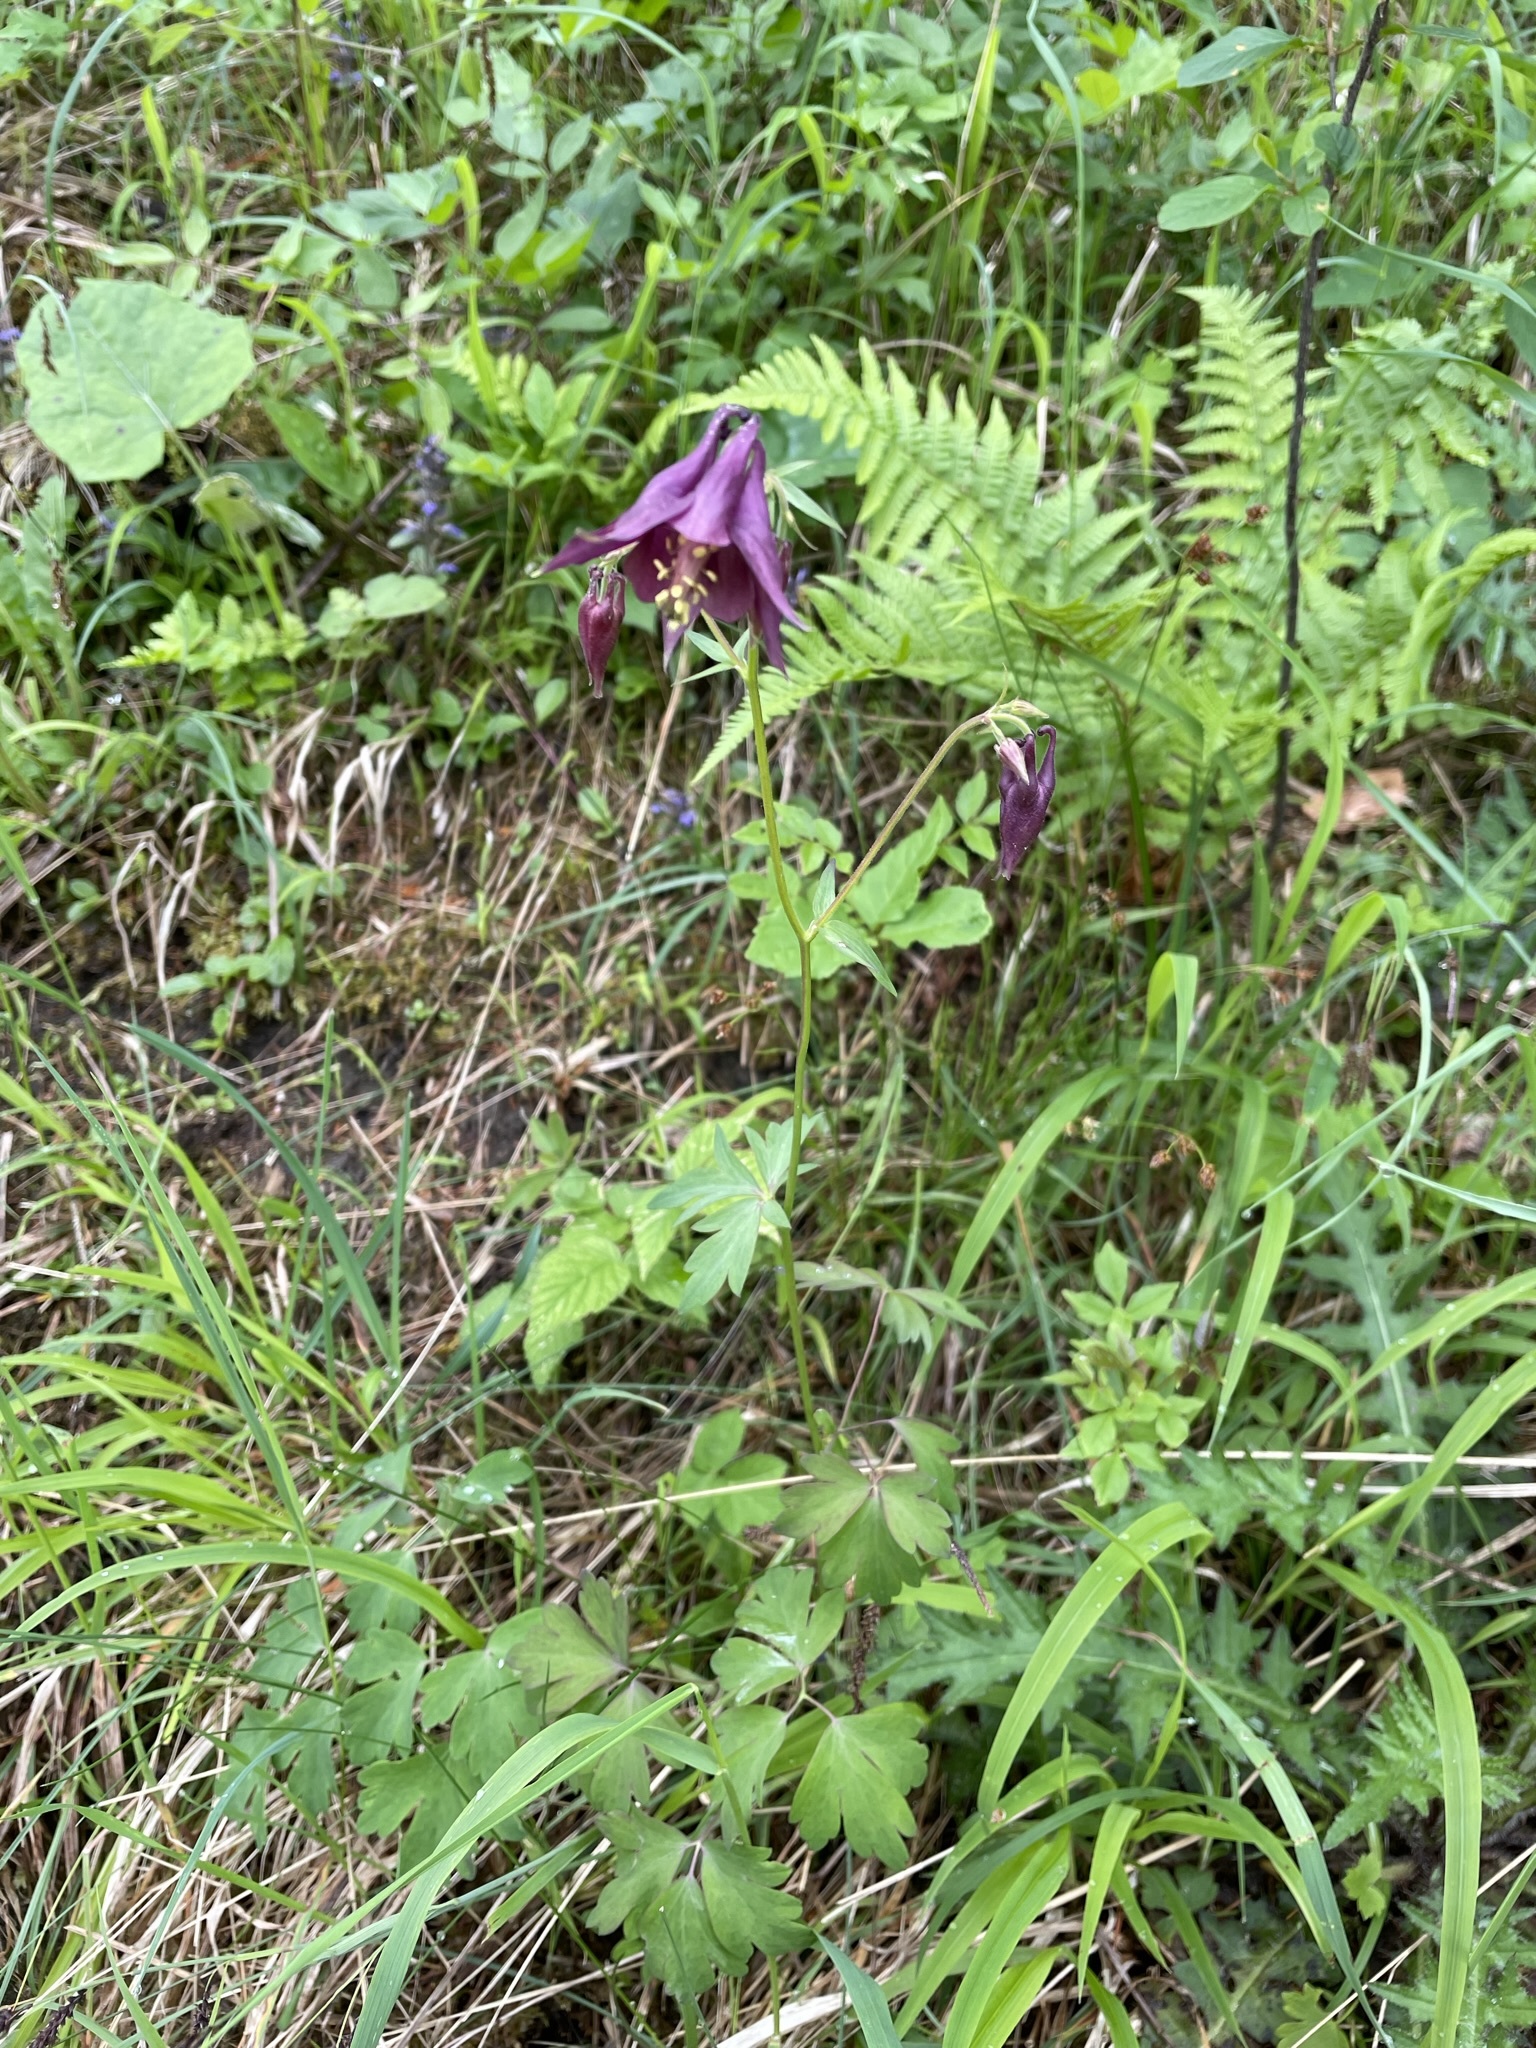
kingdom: Plantae
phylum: Tracheophyta
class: Magnoliopsida
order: Ranunculales
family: Ranunculaceae
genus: Aquilegia
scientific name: Aquilegia atrata
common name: Dark columbine
